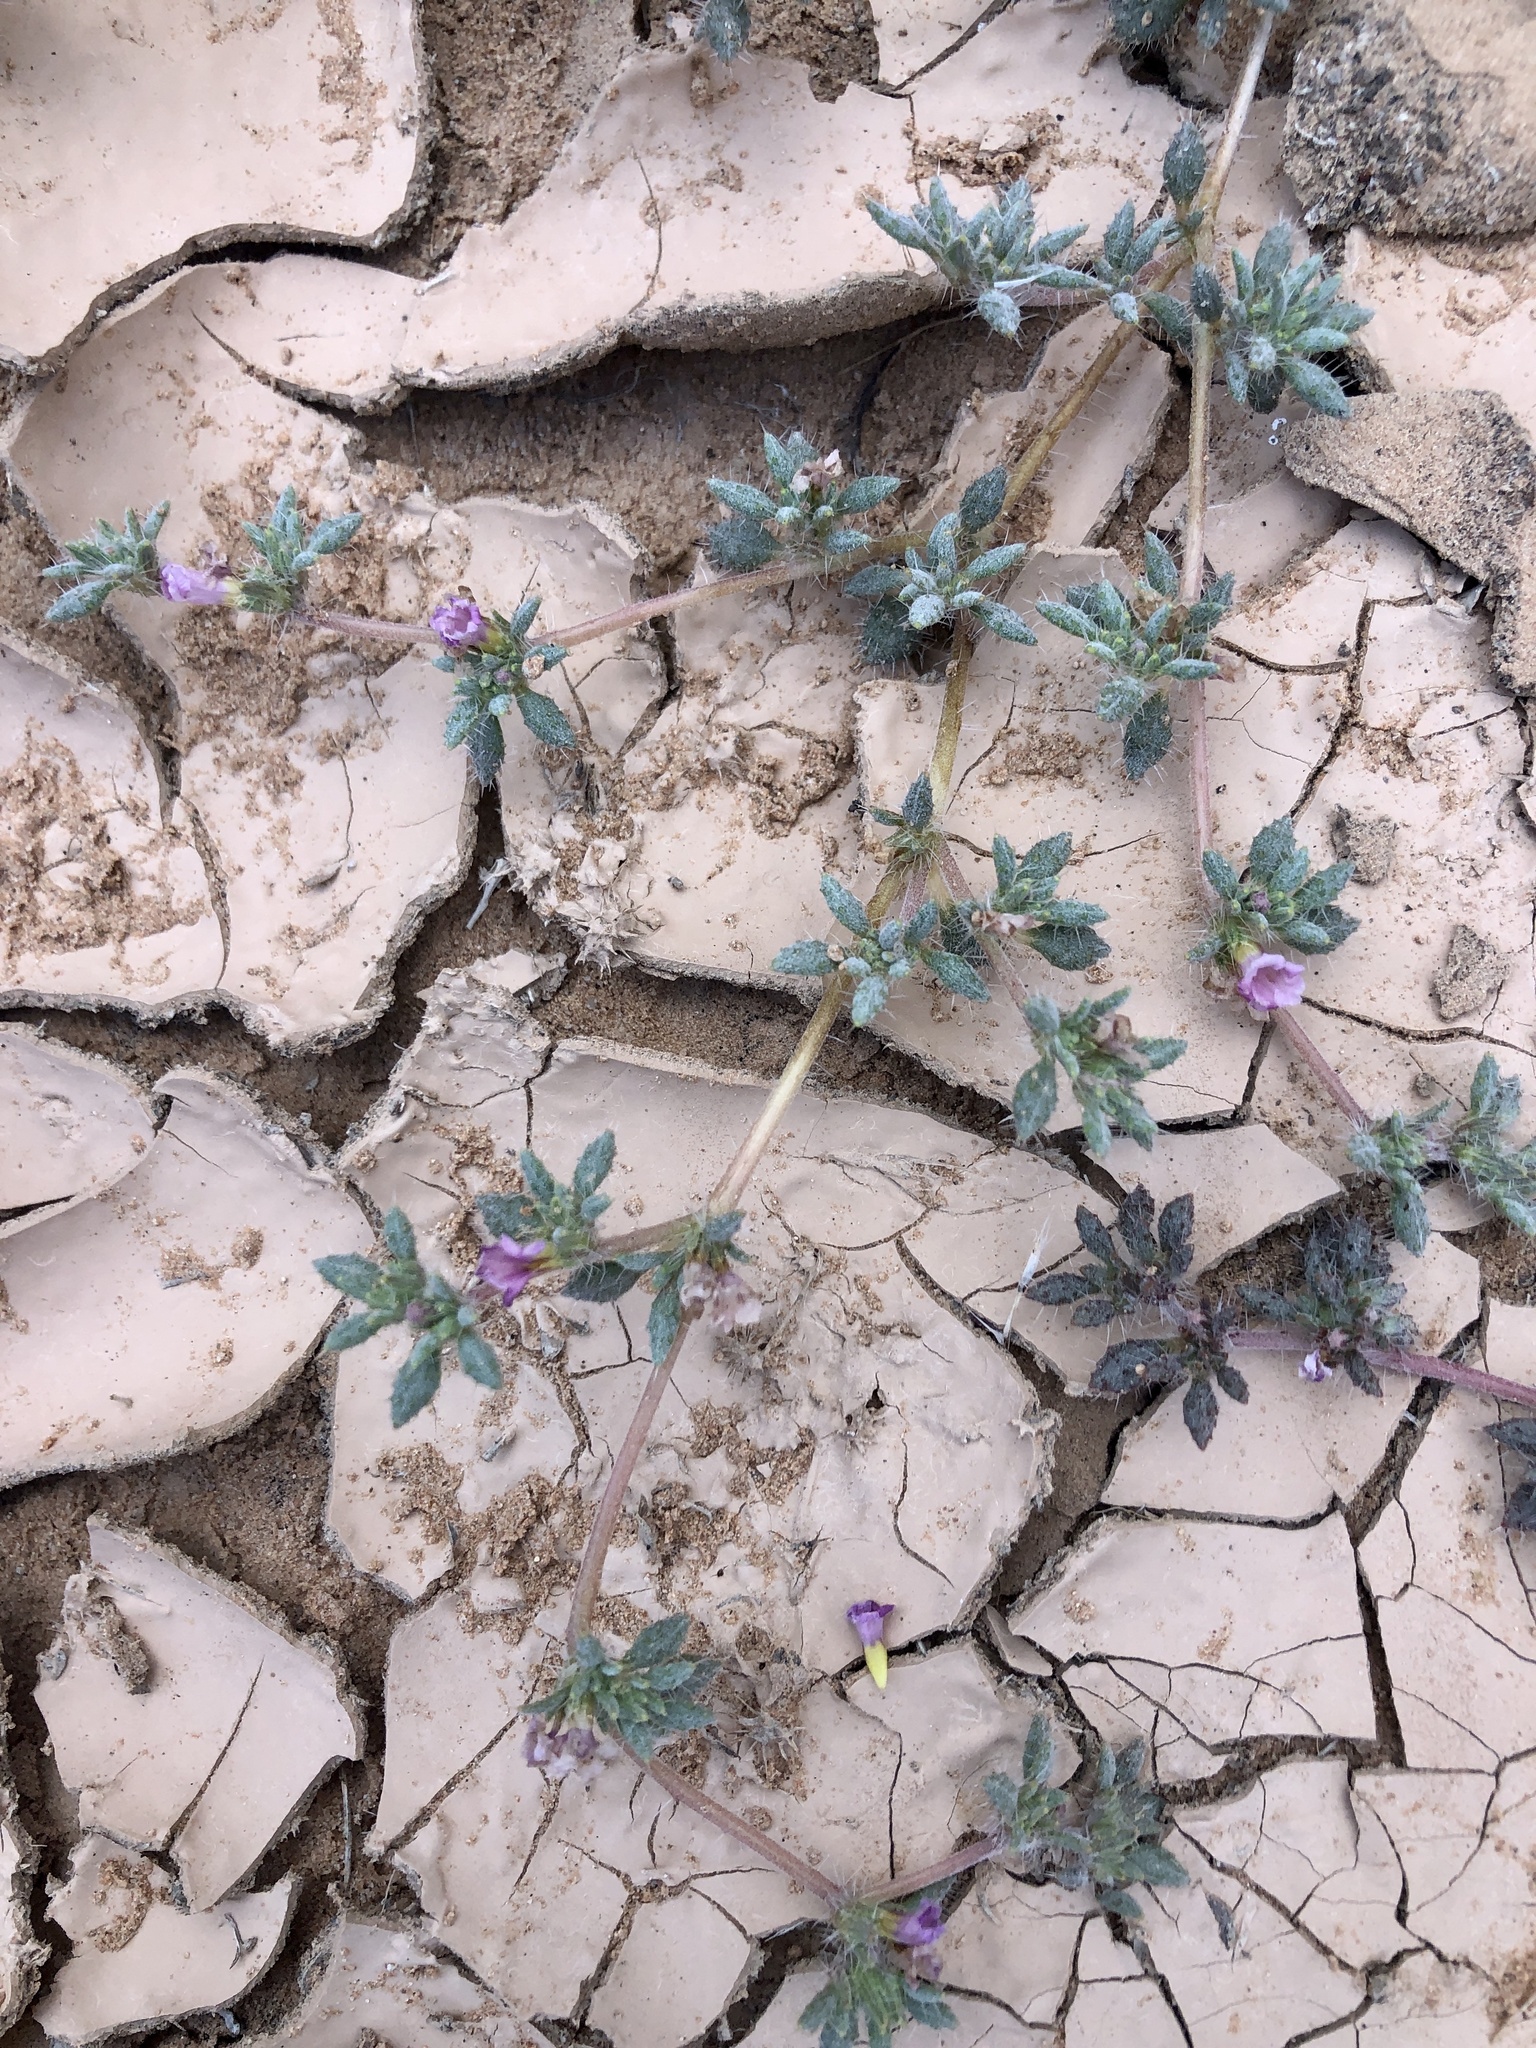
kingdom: Plantae
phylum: Tracheophyta
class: Magnoliopsida
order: Boraginales
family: Ehretiaceae
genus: Tiquilia
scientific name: Tiquilia latior
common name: Matted tiquilia
